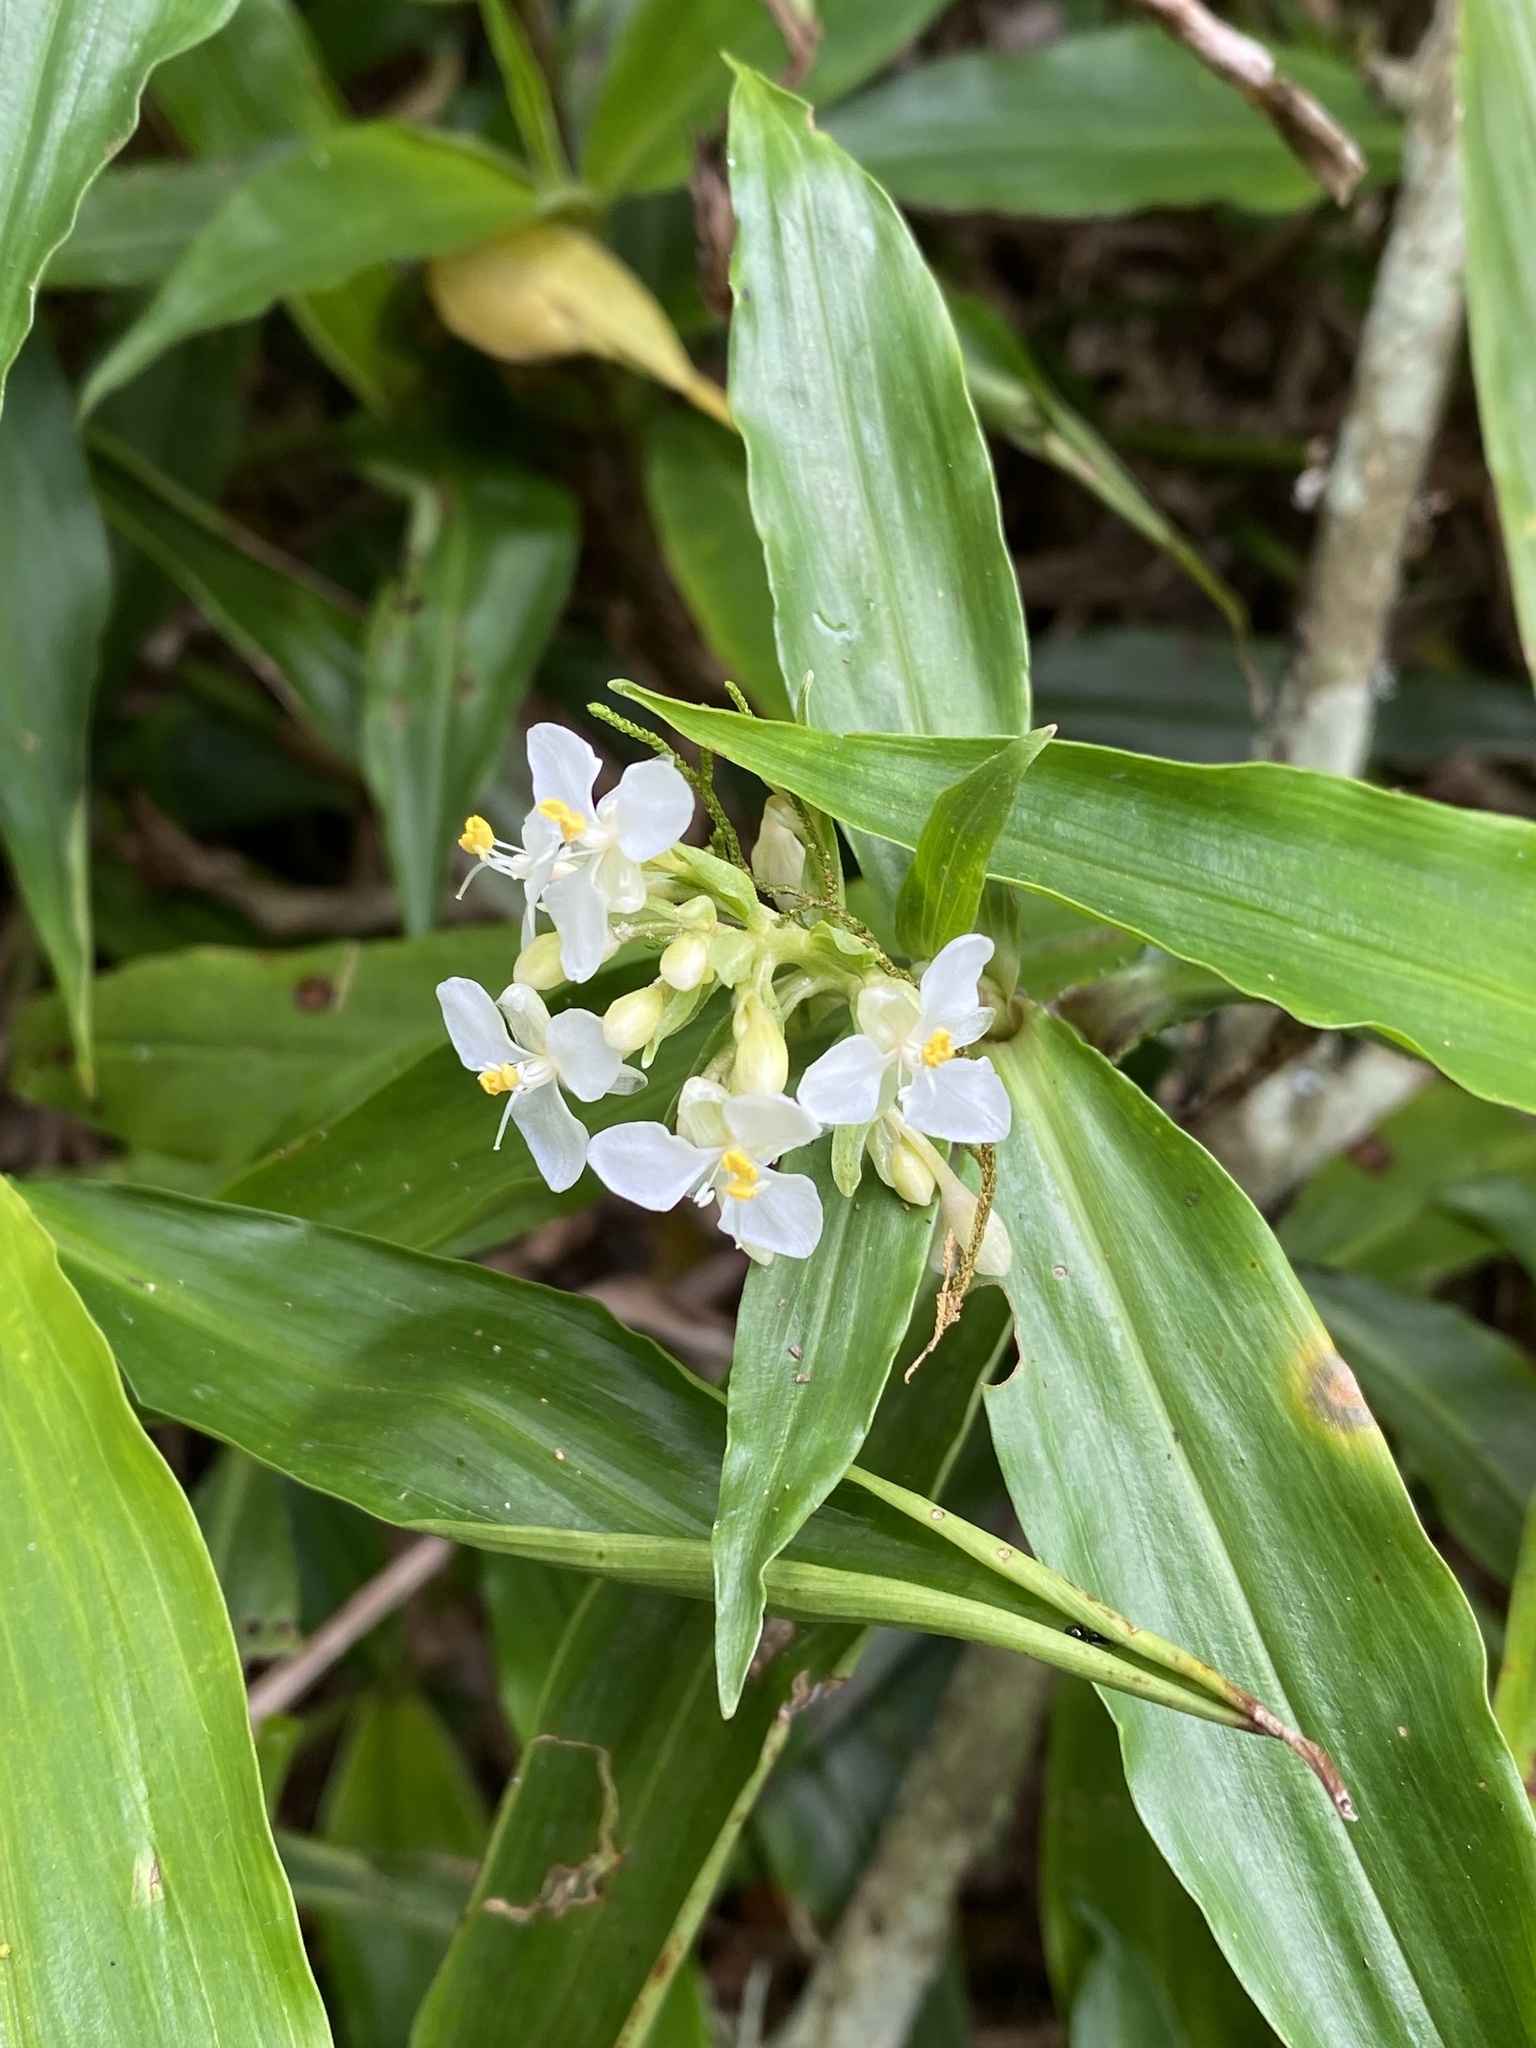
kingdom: Plantae
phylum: Tracheophyta
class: Liliopsida
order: Commelinales
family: Commelinaceae
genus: Pollia
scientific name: Pollia crispata
